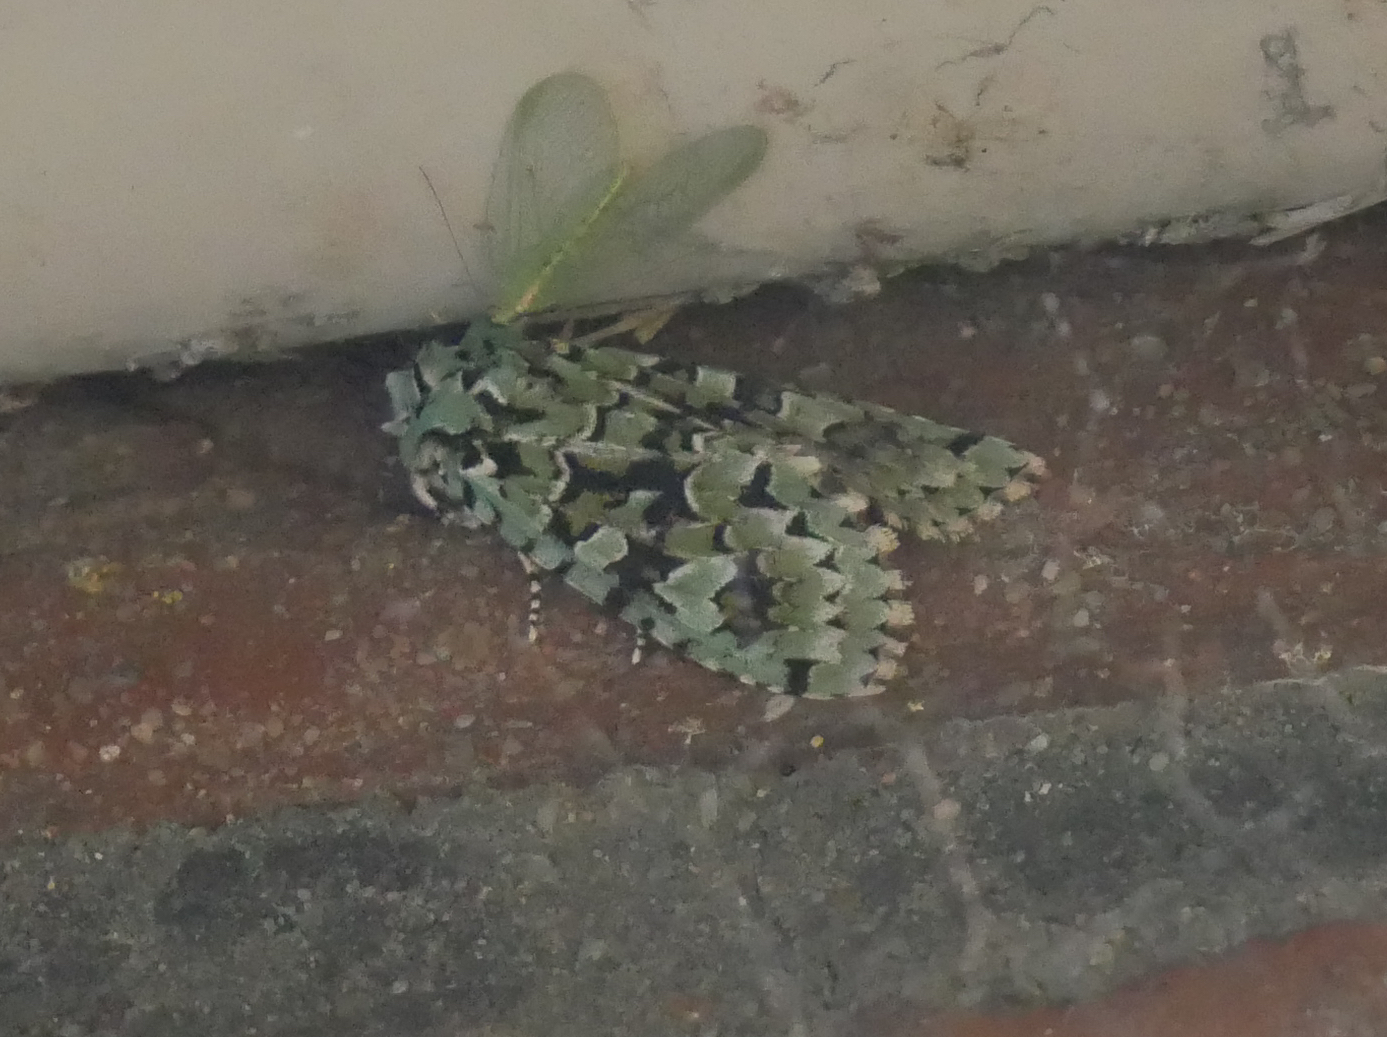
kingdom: Animalia
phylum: Arthropoda
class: Insecta
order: Lepidoptera
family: Noctuidae
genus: Griposia
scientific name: Griposia aprilina
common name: Merveille du jour
